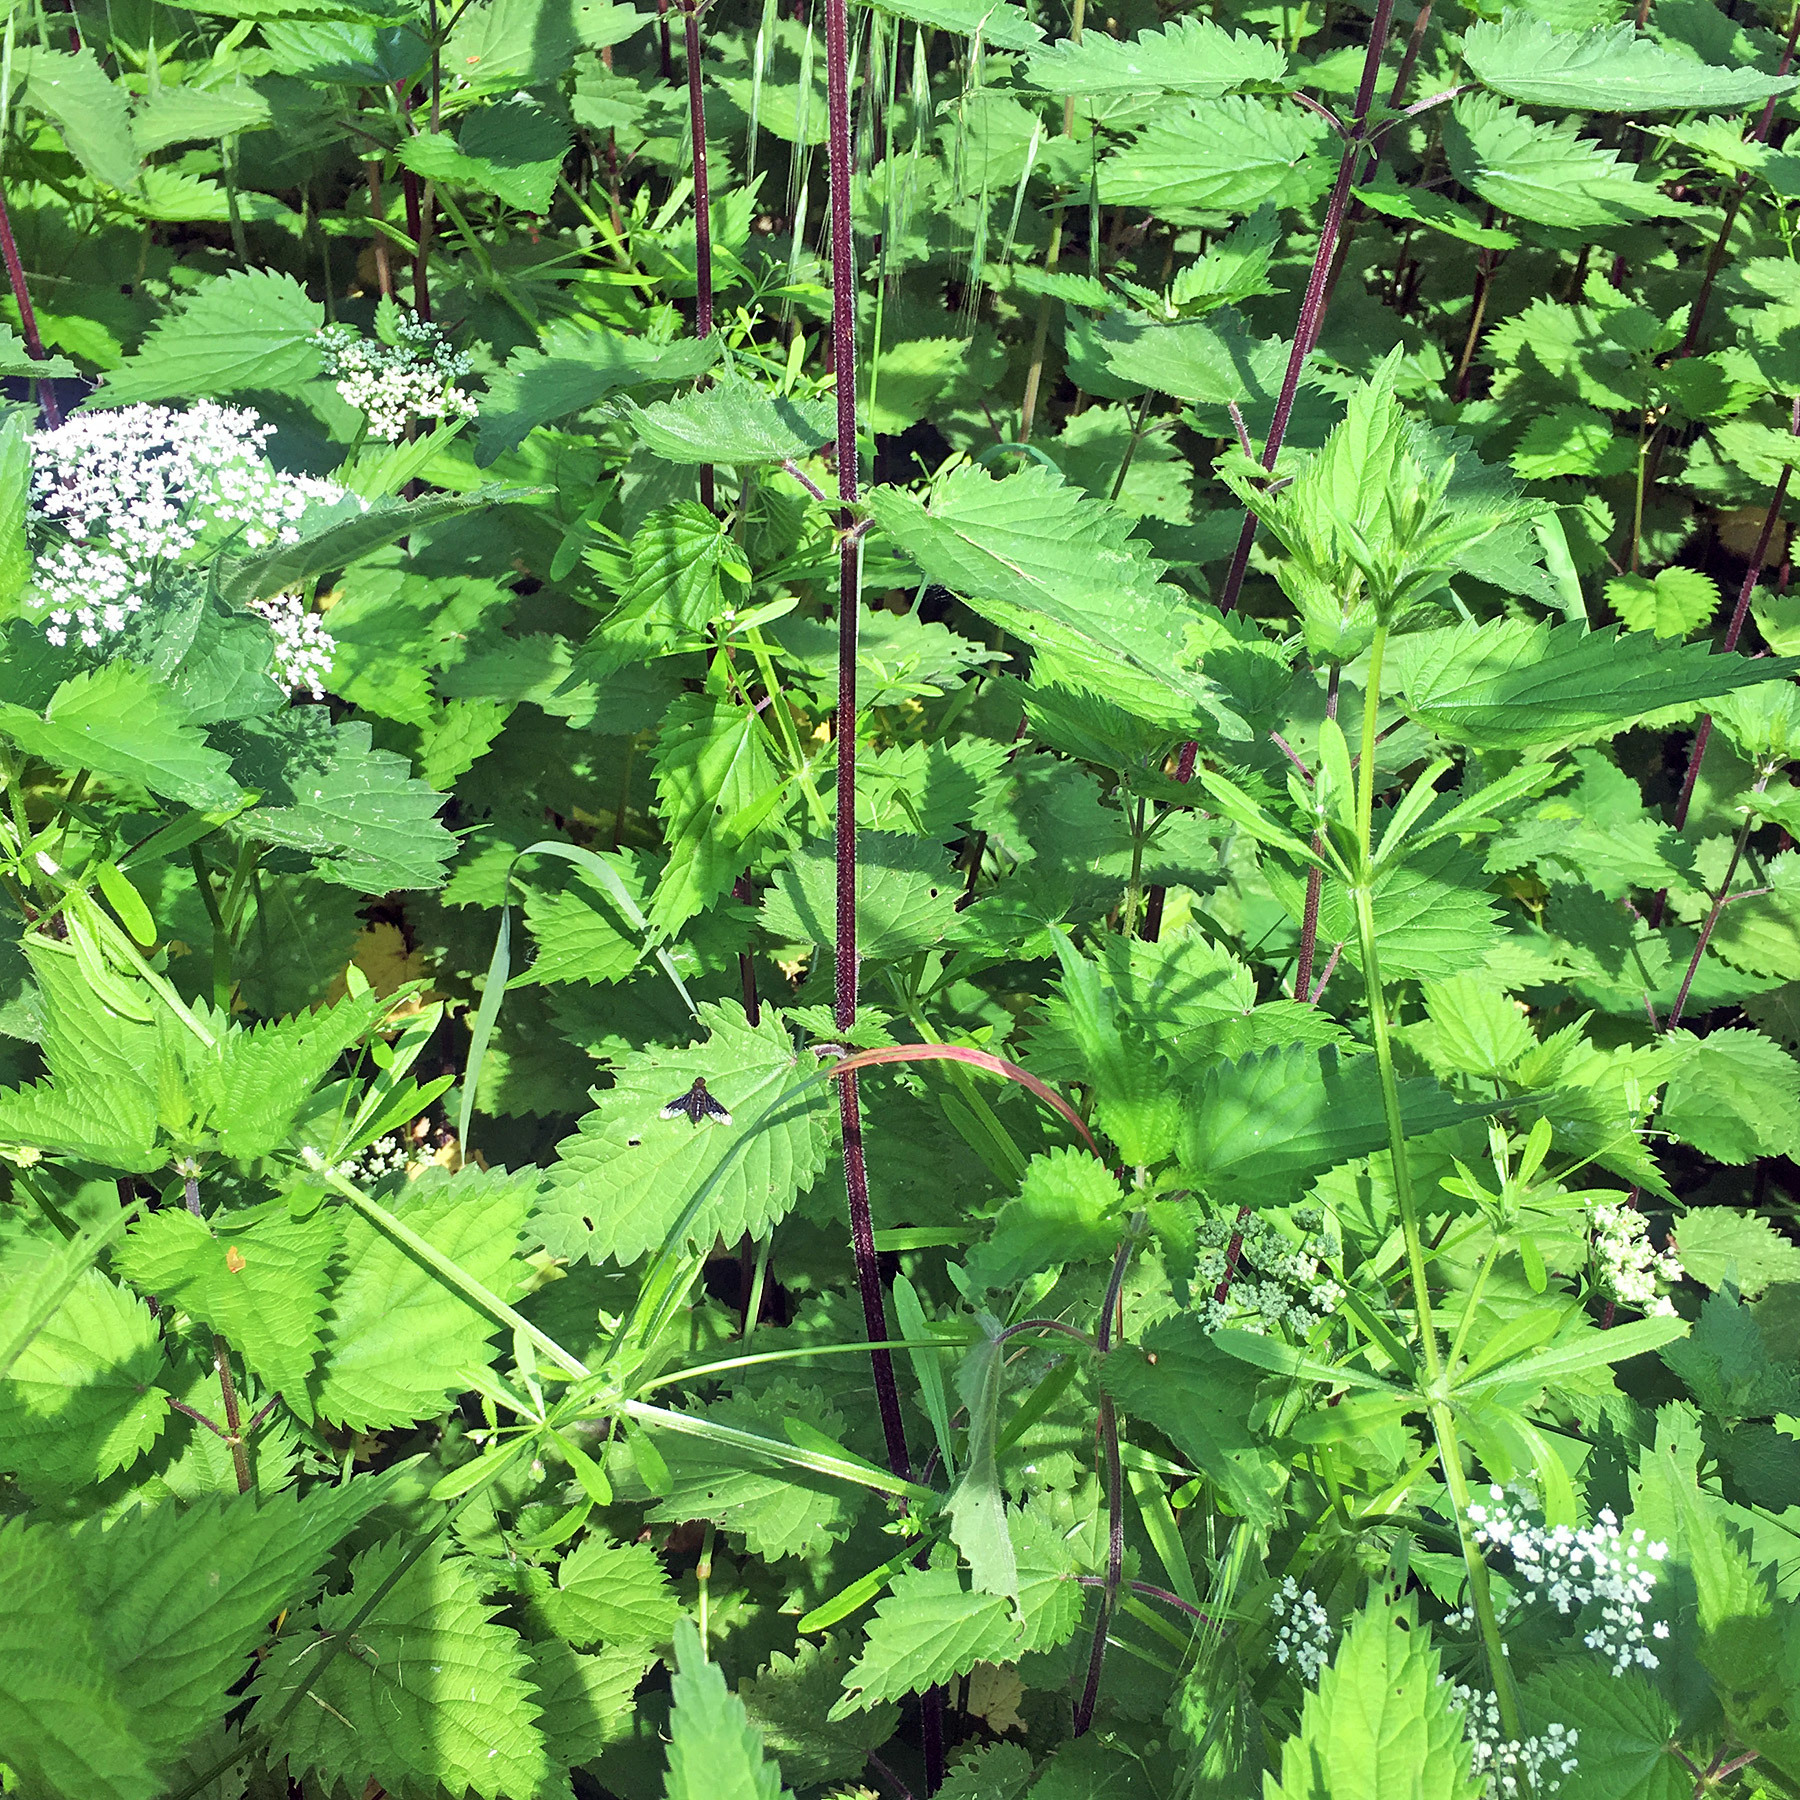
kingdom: Animalia
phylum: Arthropoda
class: Insecta
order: Diptera
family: Bombyliidae
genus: Hemipenthes
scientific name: Hemipenthes morio
